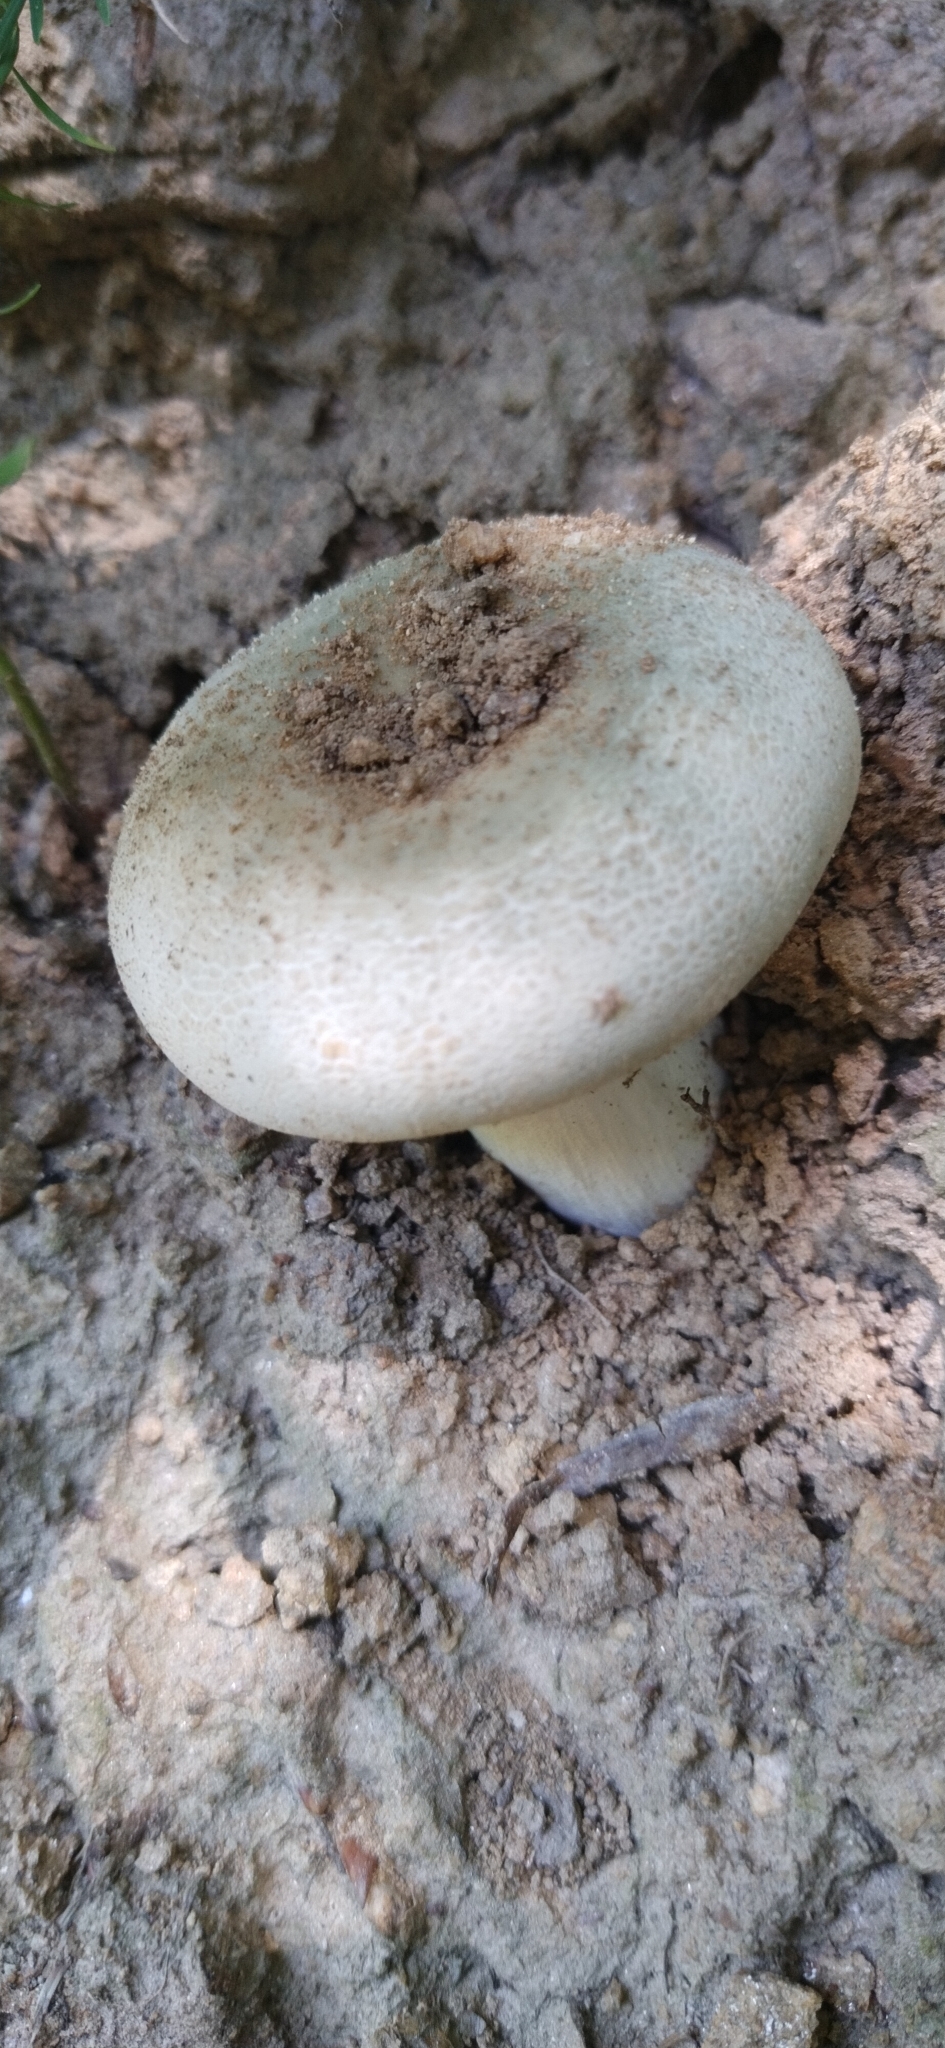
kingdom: Fungi
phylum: Basidiomycota
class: Agaricomycetes
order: Russulales
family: Russulaceae
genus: Russula
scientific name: Russula virescens
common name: Greencracked brittlegill
